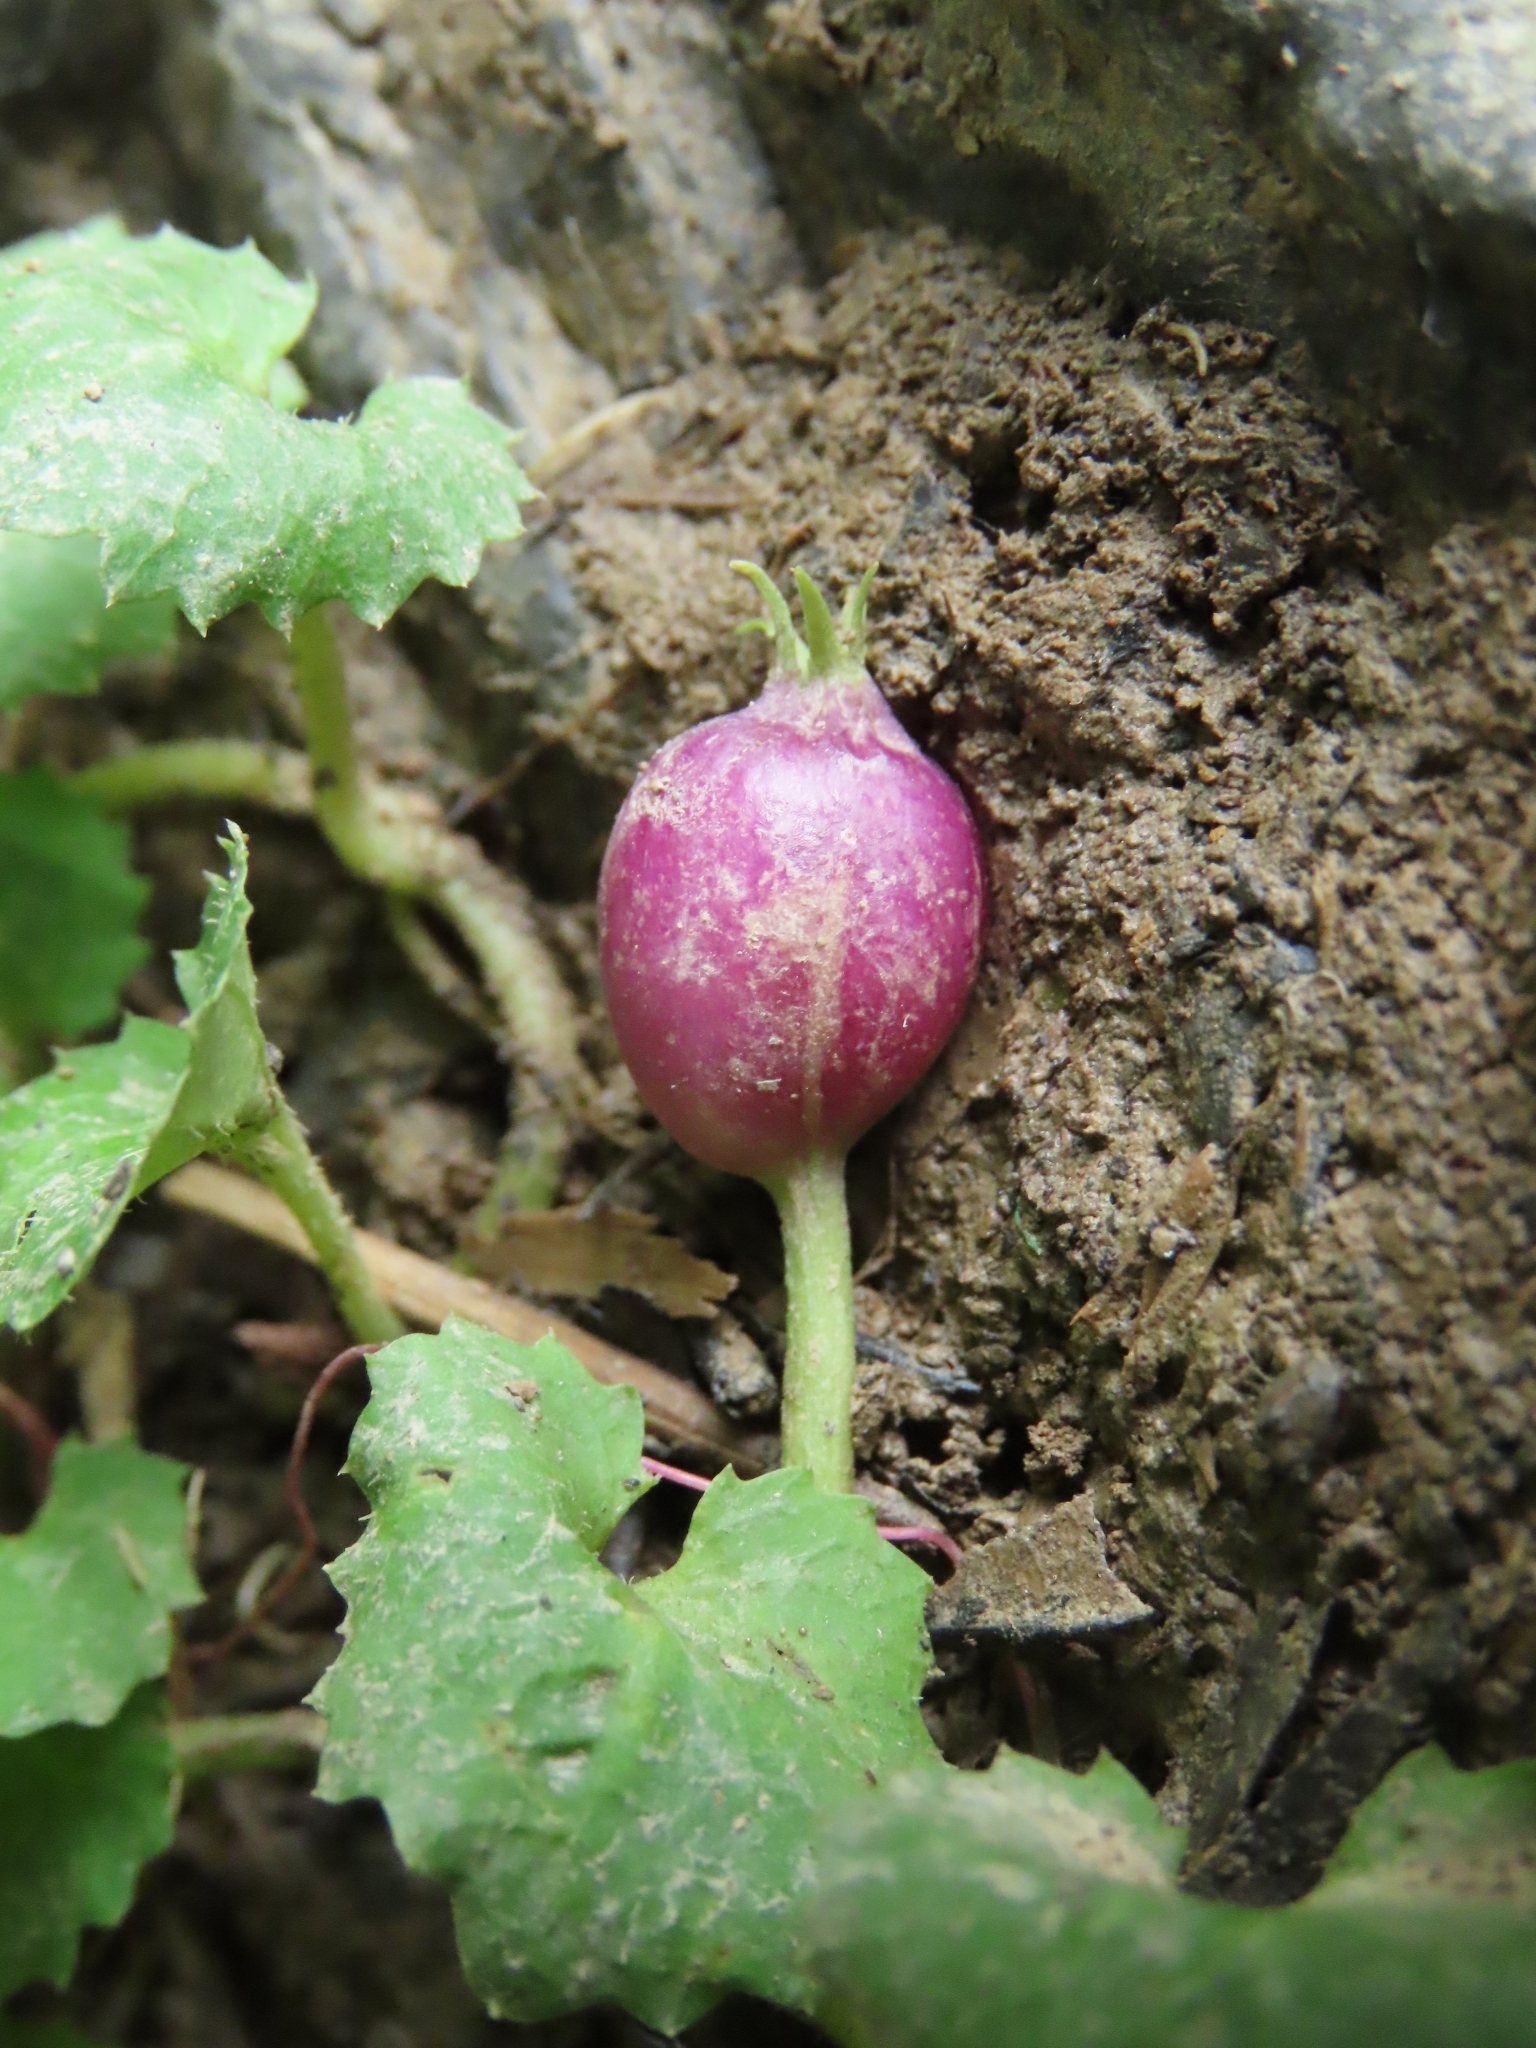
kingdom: Plantae
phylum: Tracheophyta
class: Magnoliopsida
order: Asterales
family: Campanulaceae
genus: Lobelia
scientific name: Lobelia nummularia
